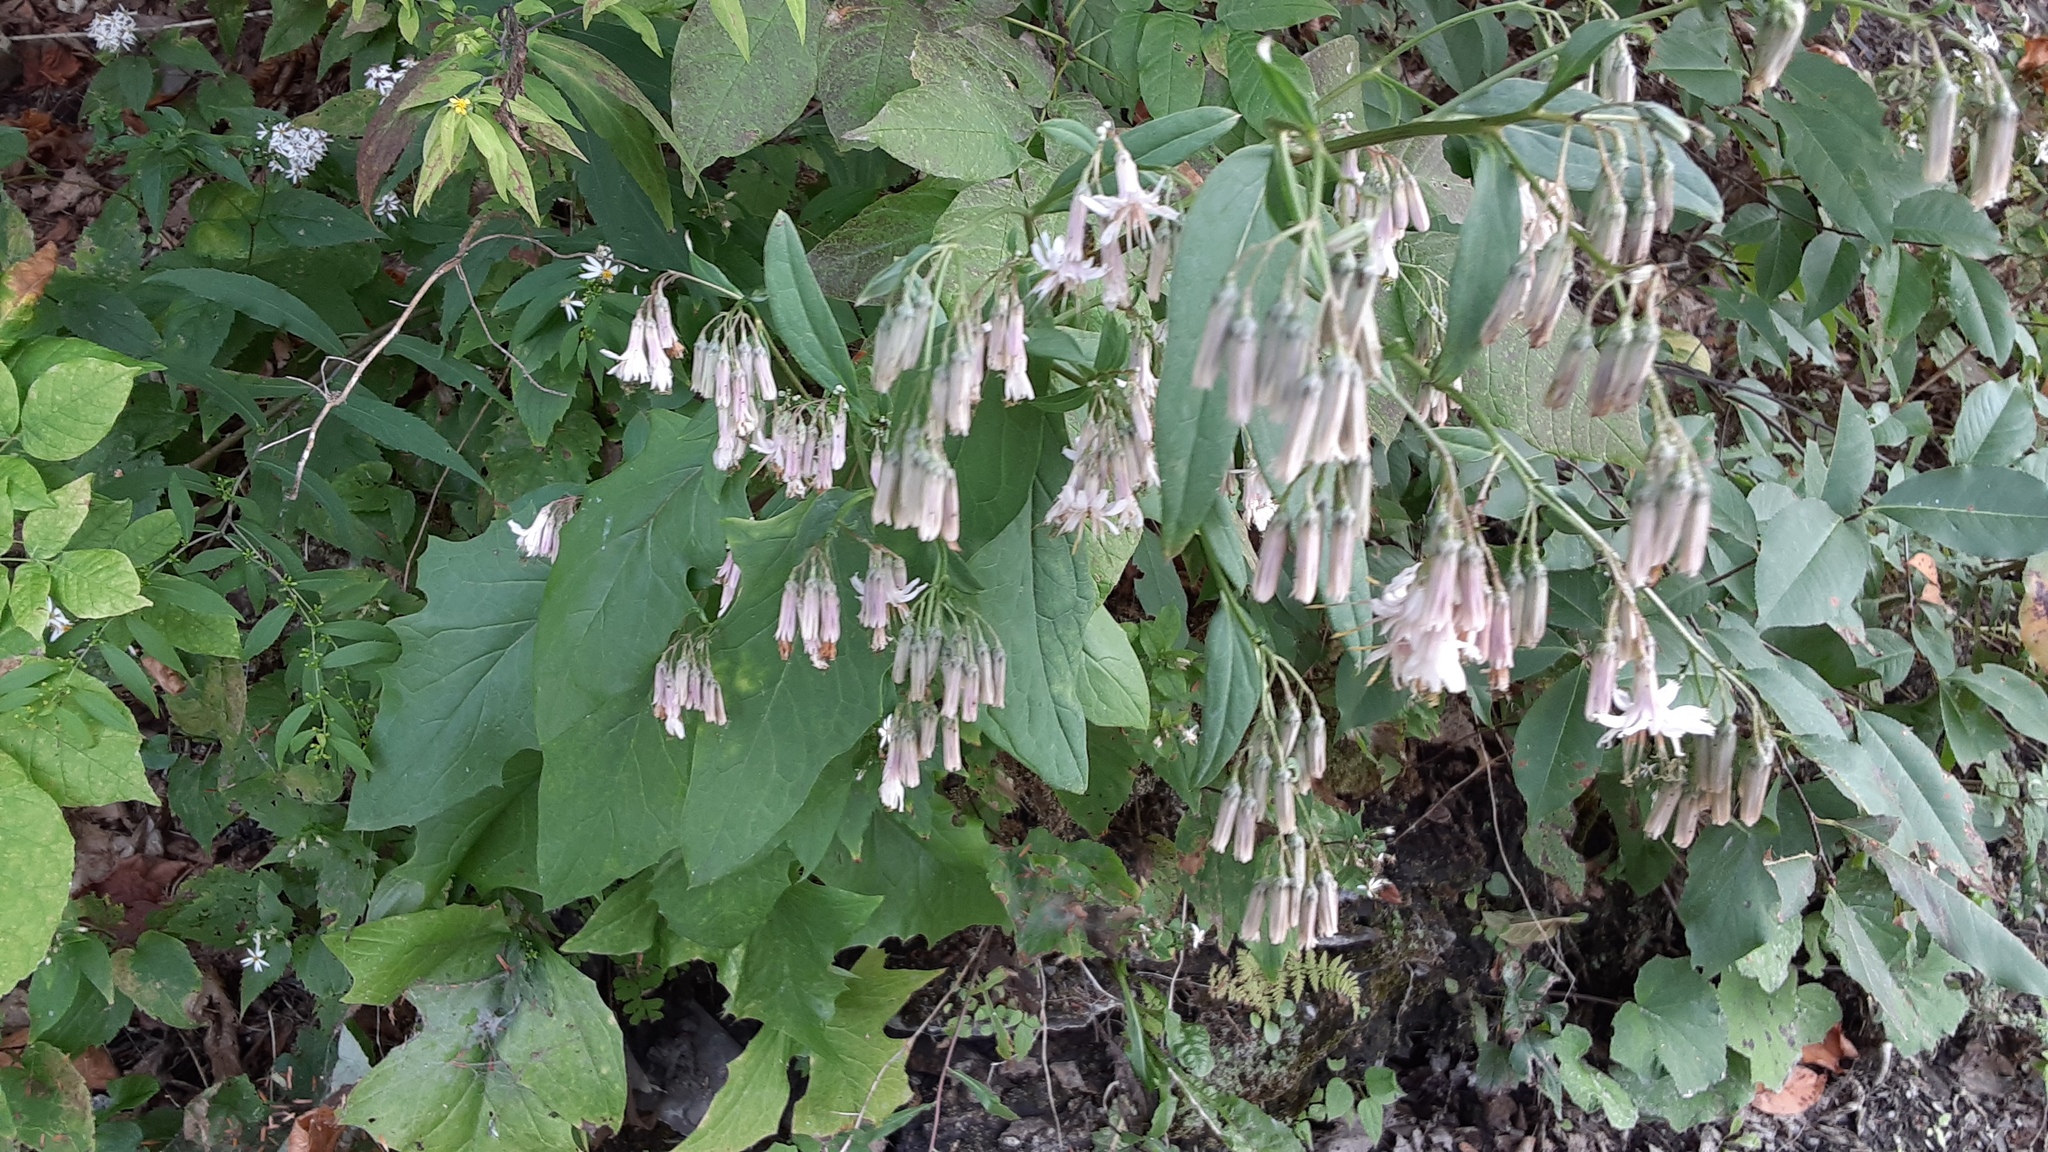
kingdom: Plantae
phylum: Tracheophyta
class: Magnoliopsida
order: Asterales
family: Asteraceae
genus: Nabalus
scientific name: Nabalus albus
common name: White rattlesnakeroot
